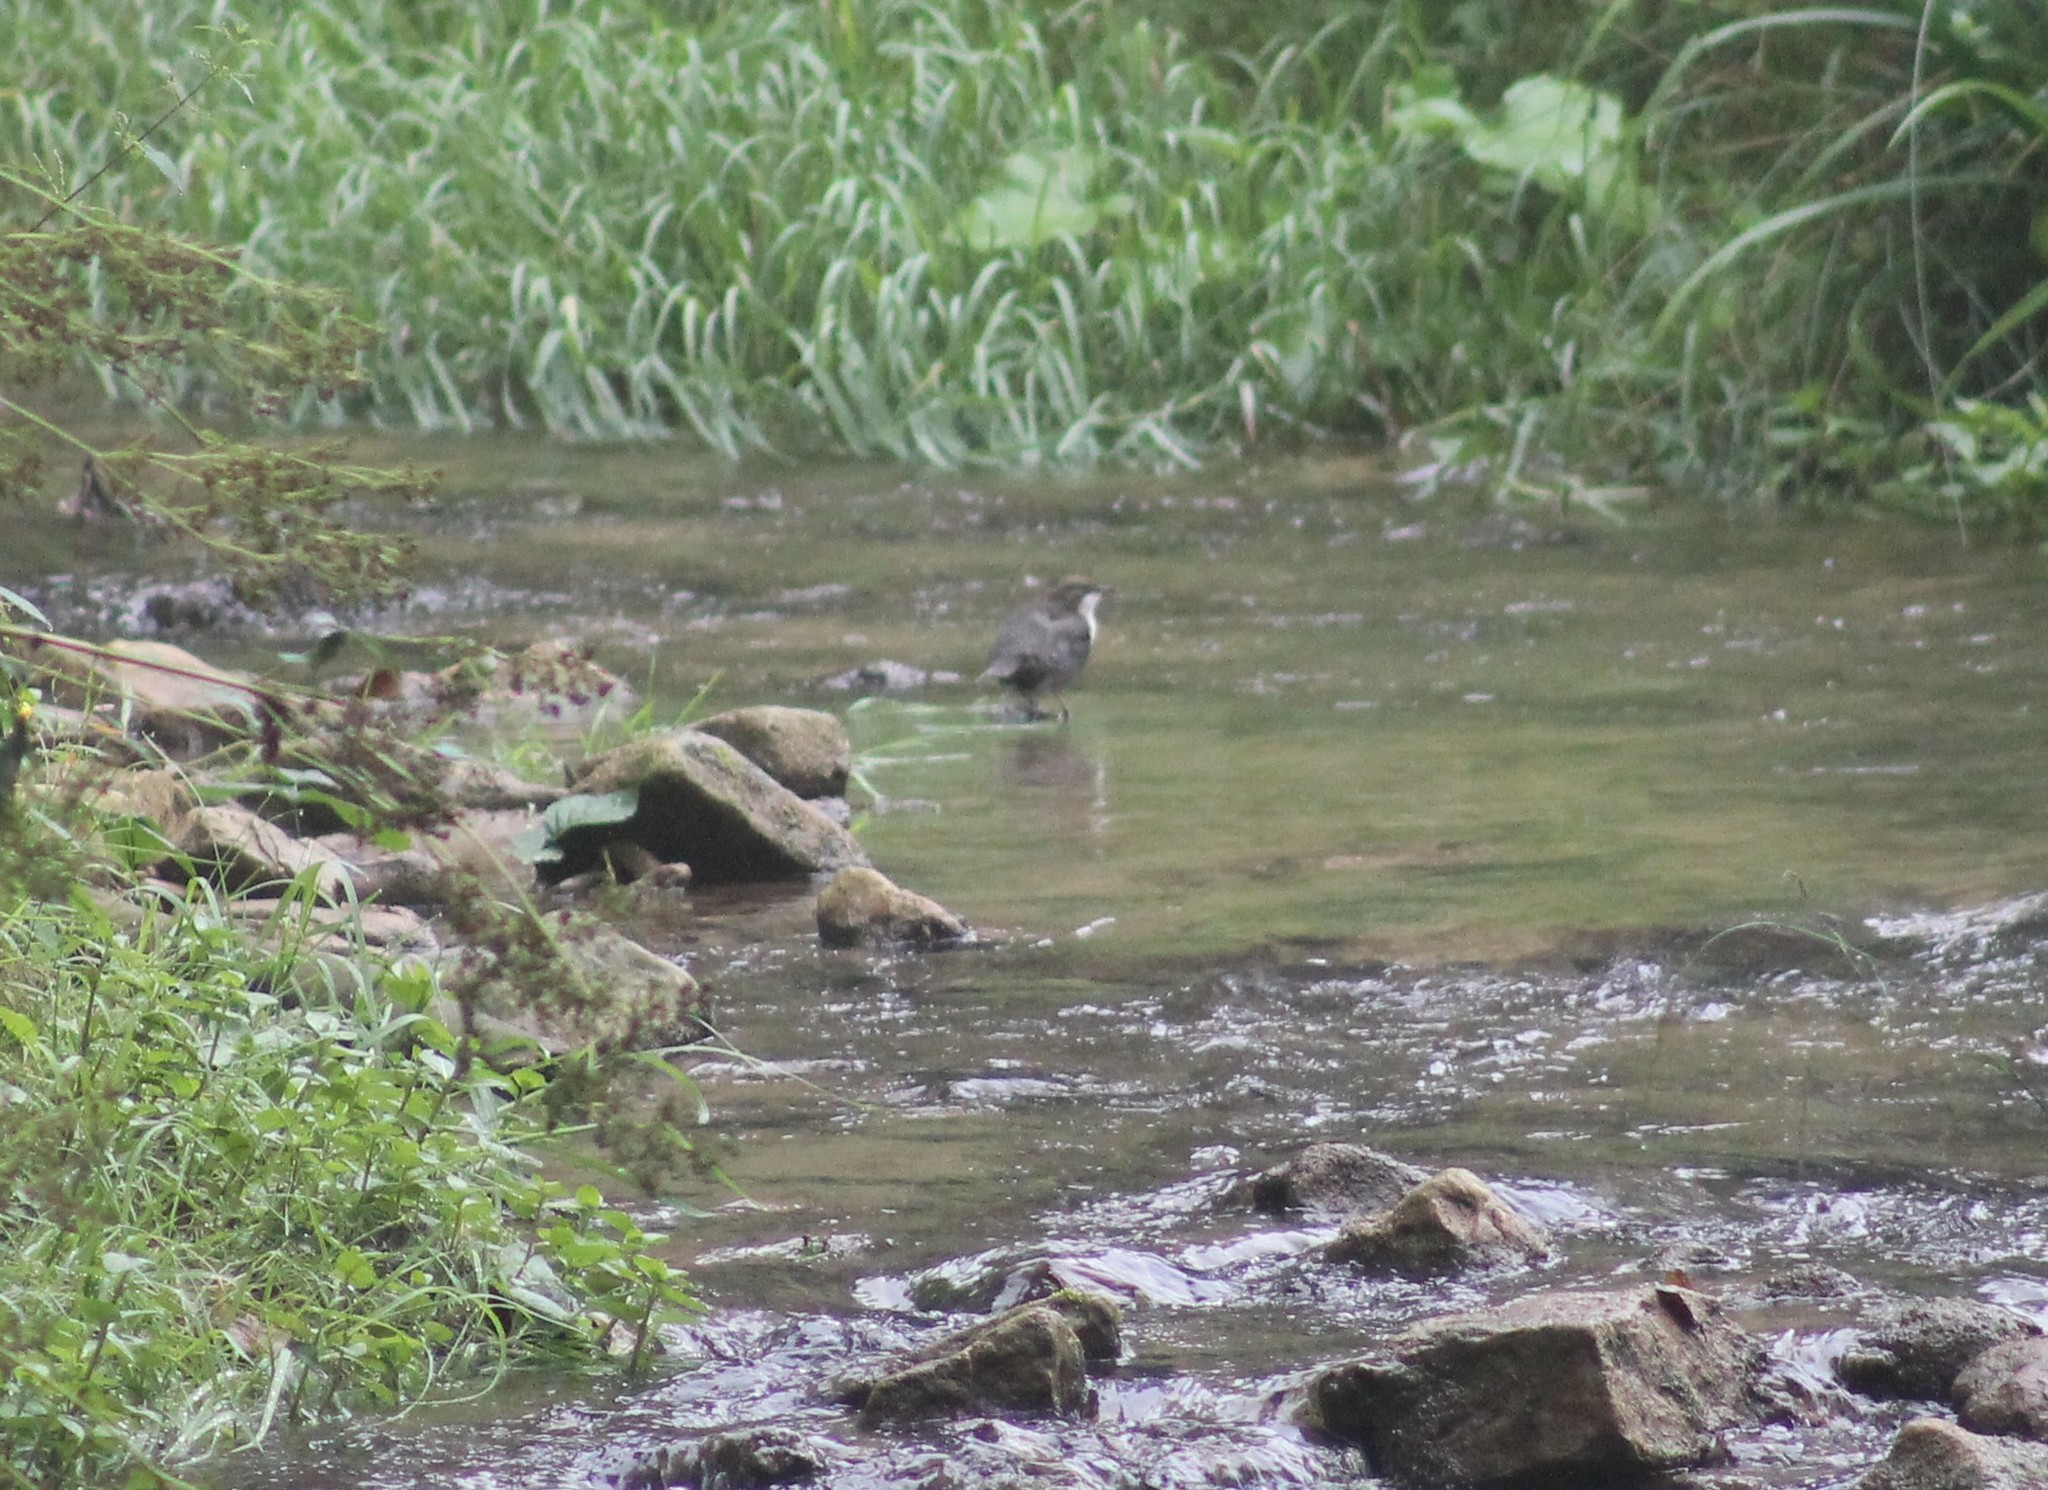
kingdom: Animalia
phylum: Chordata
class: Aves
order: Passeriformes
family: Cinclidae
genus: Cinclus
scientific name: Cinclus cinclus
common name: White-throated dipper
